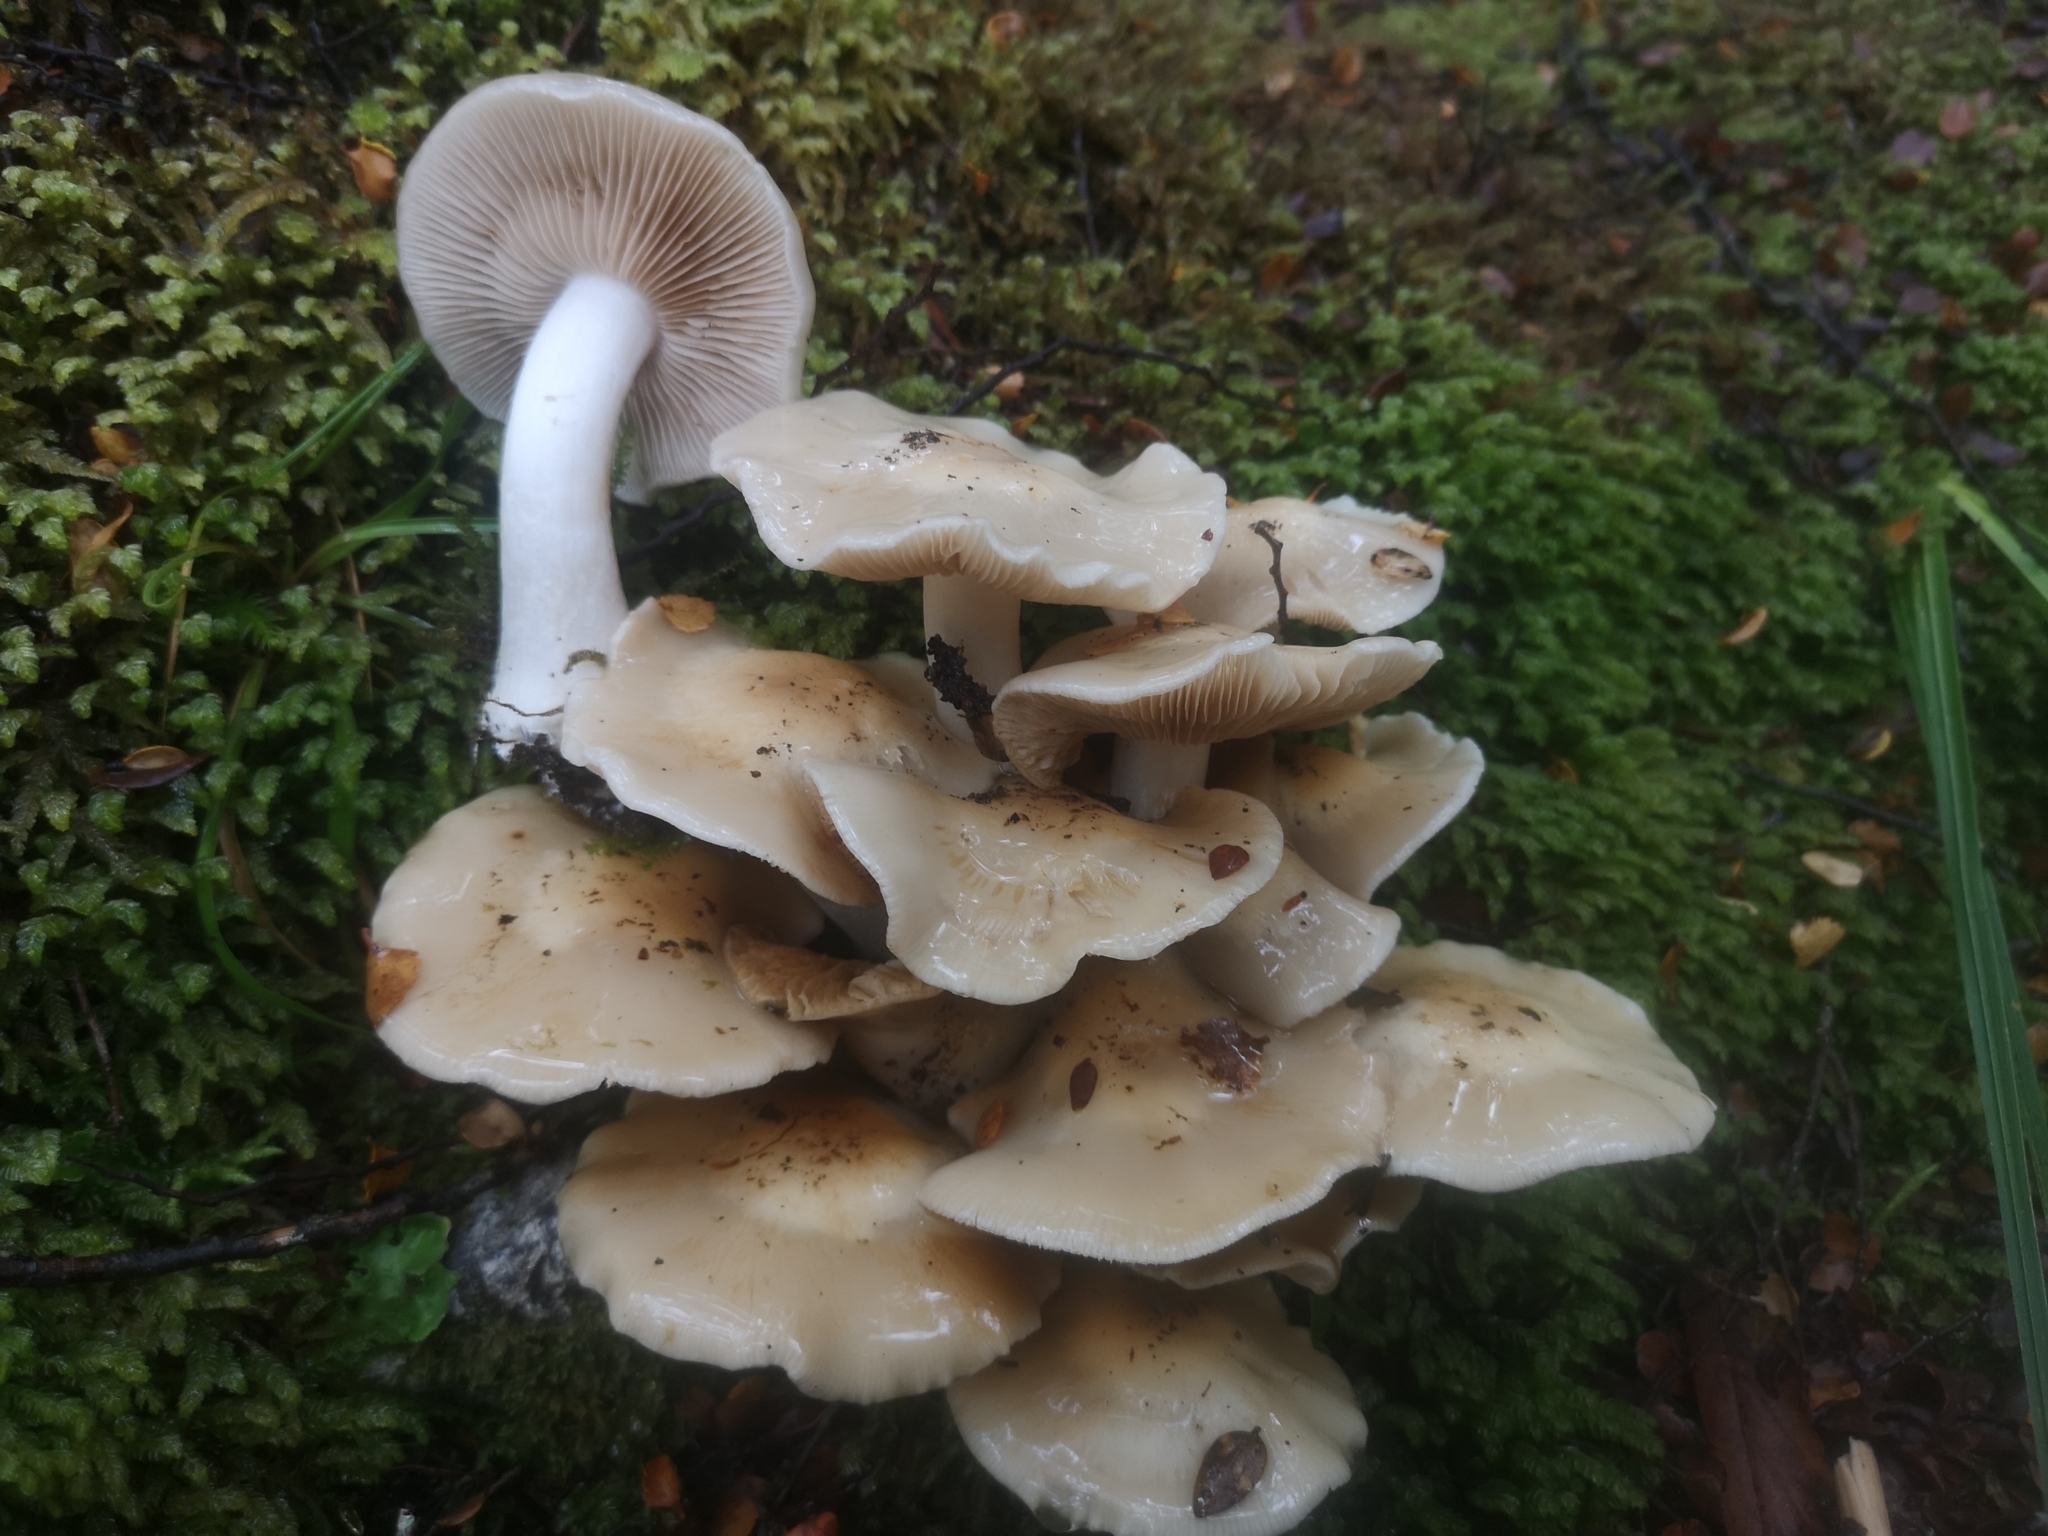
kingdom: Fungi
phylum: Basidiomycota
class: Agaricomycetes
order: Agaricales
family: Hymenogastraceae
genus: Psathyloma
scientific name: Psathyloma leucocarpum
